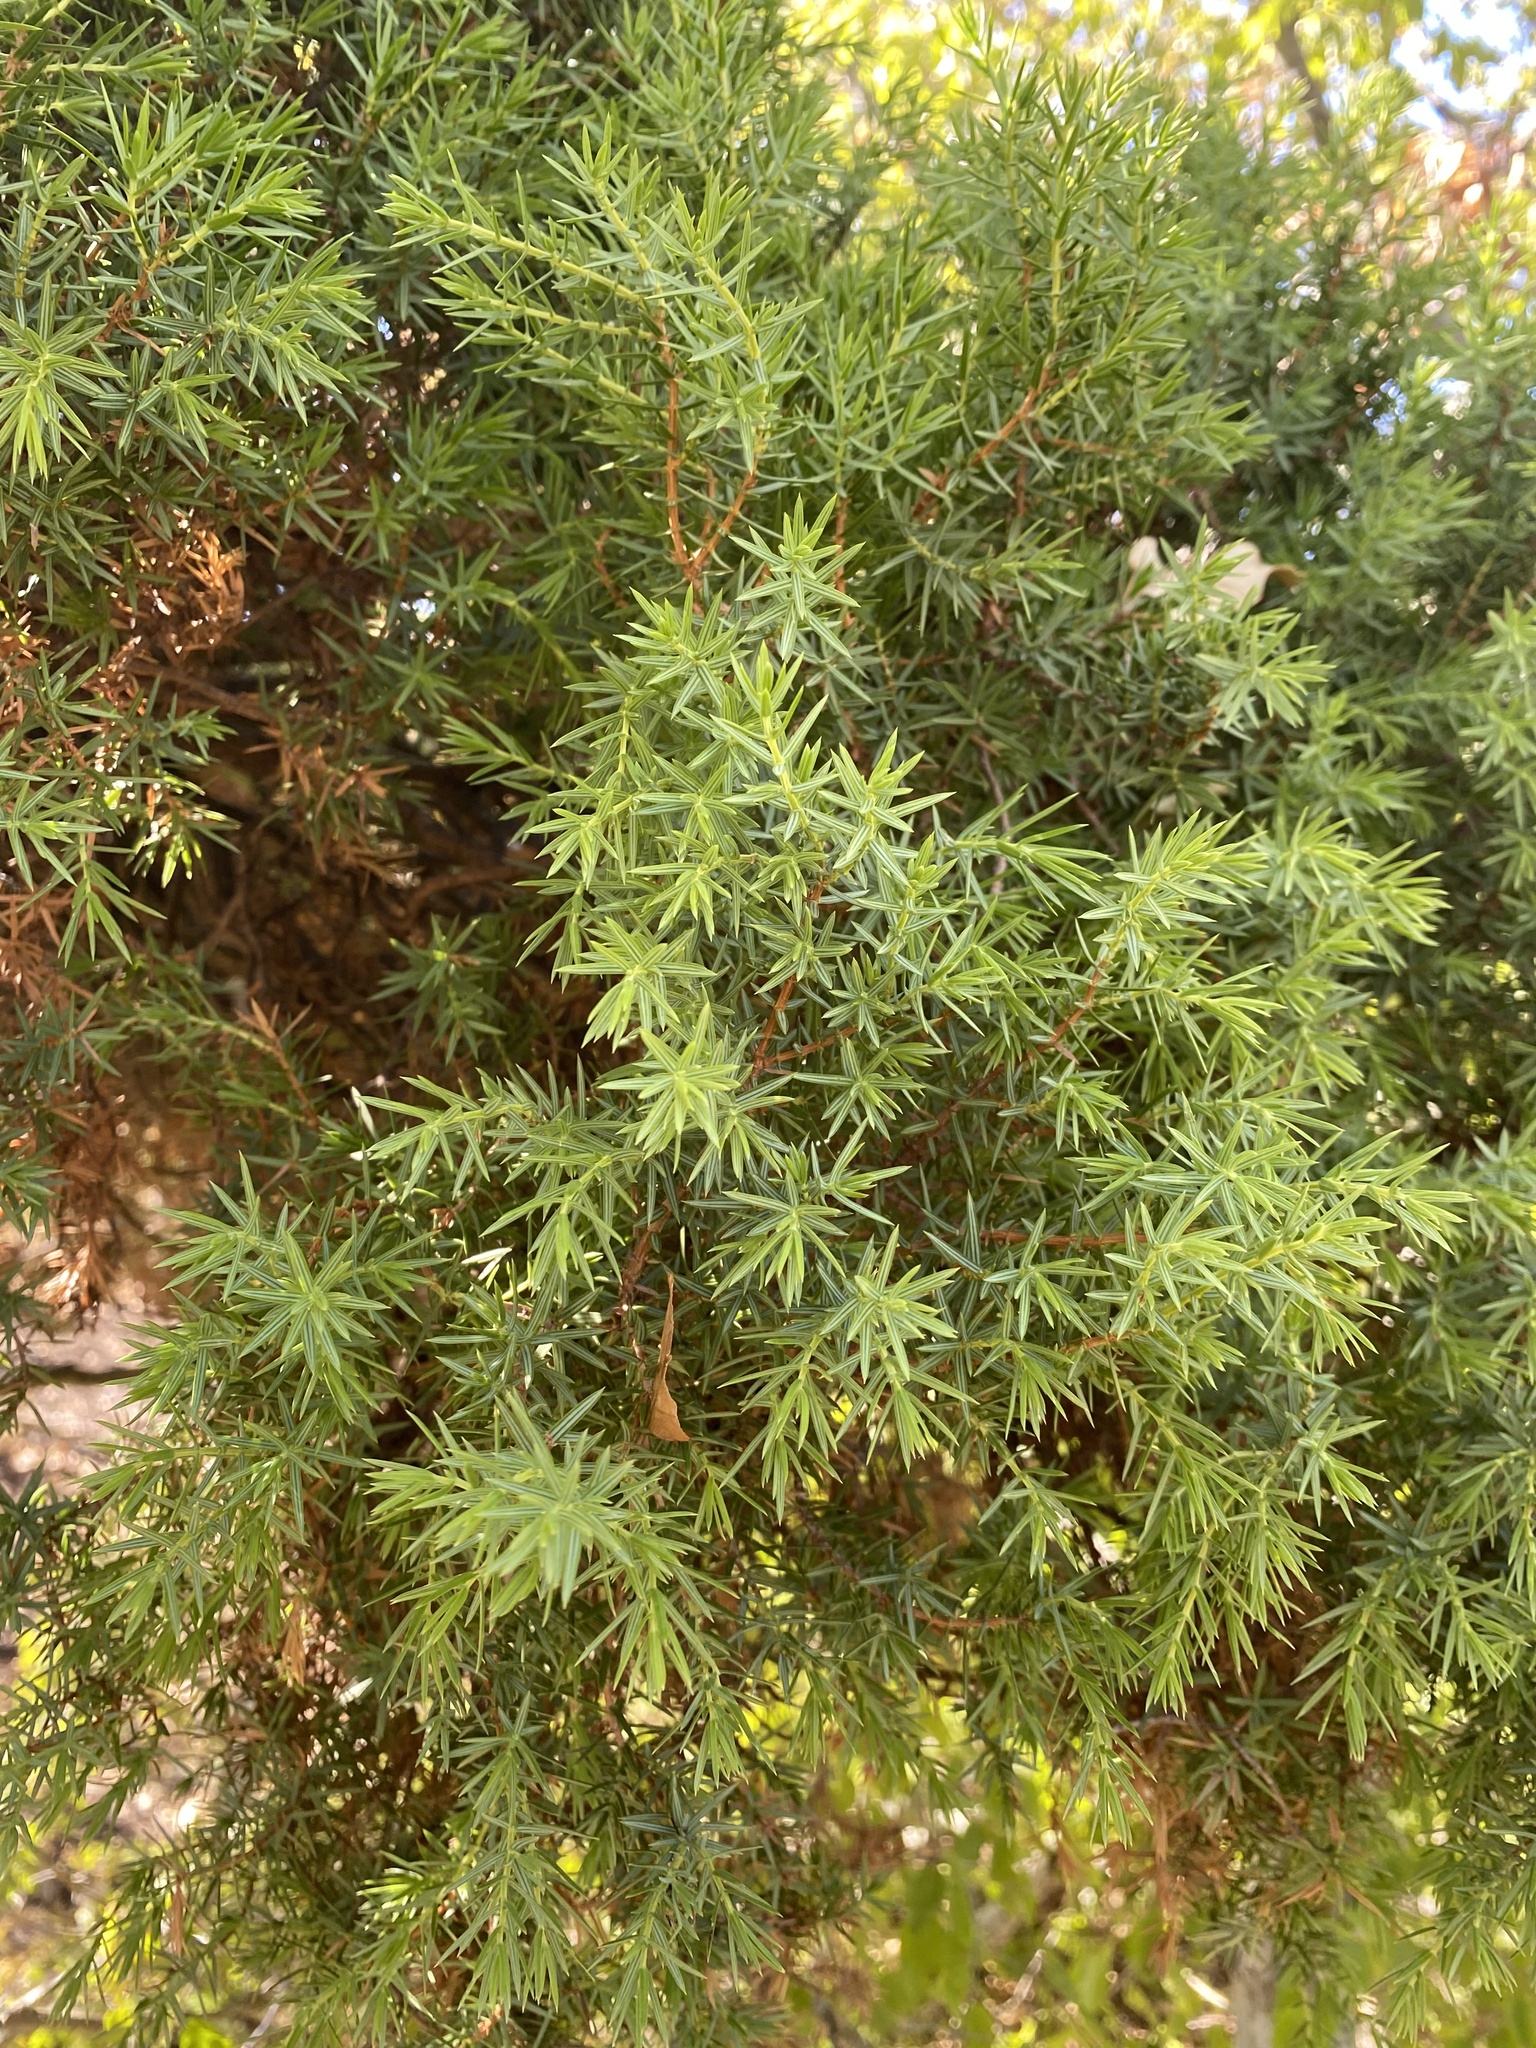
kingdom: Plantae
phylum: Tracheophyta
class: Pinopsida
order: Pinales
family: Cupressaceae
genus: Juniperus
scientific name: Juniperus oxycedrus
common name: Prickly juniper
